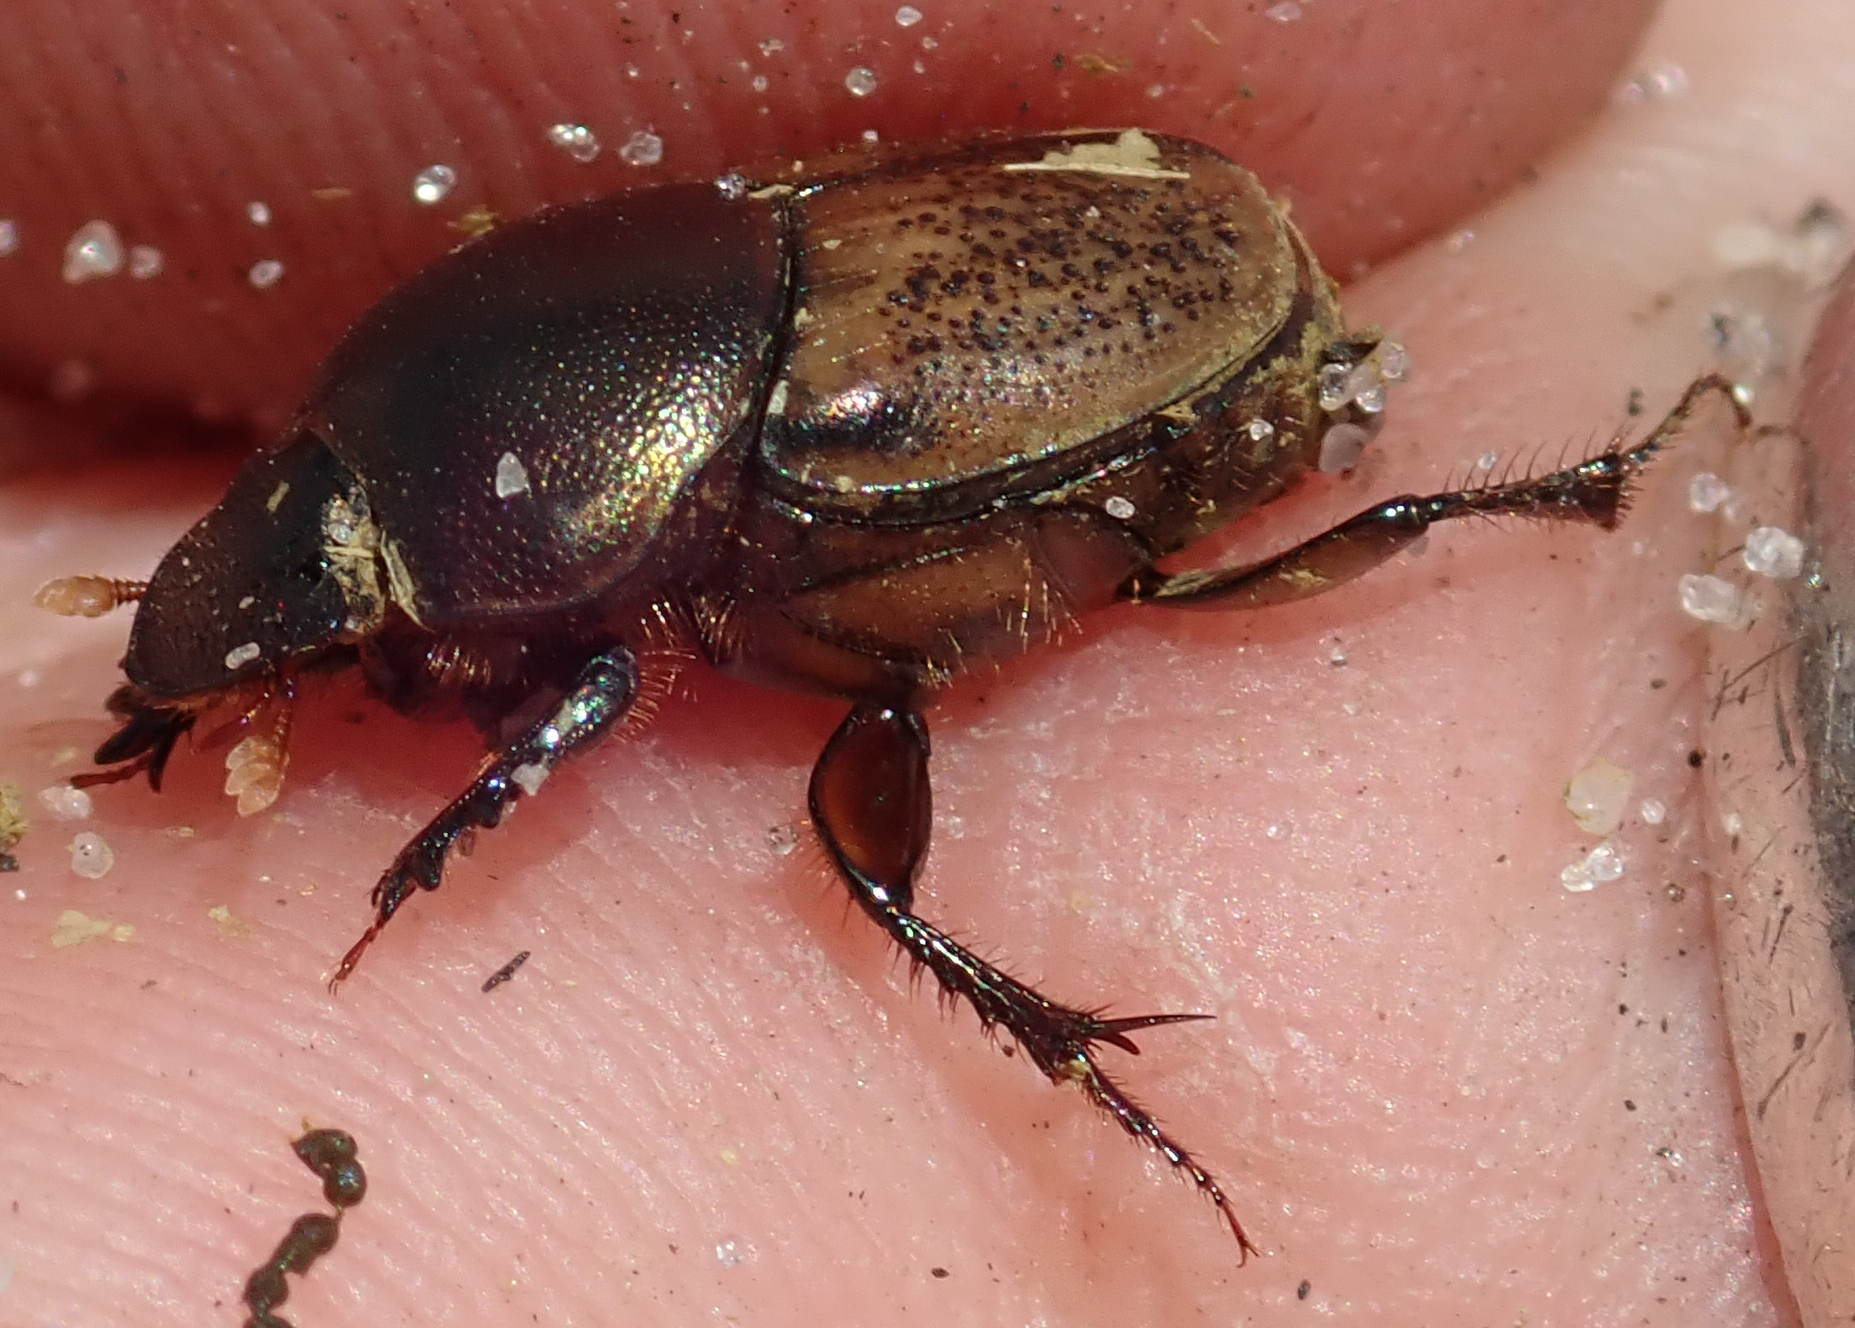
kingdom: Animalia
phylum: Arthropoda
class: Insecta
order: Coleoptera
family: Scarabaeidae
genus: Onthophagus
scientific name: Onthophagus plebejus
